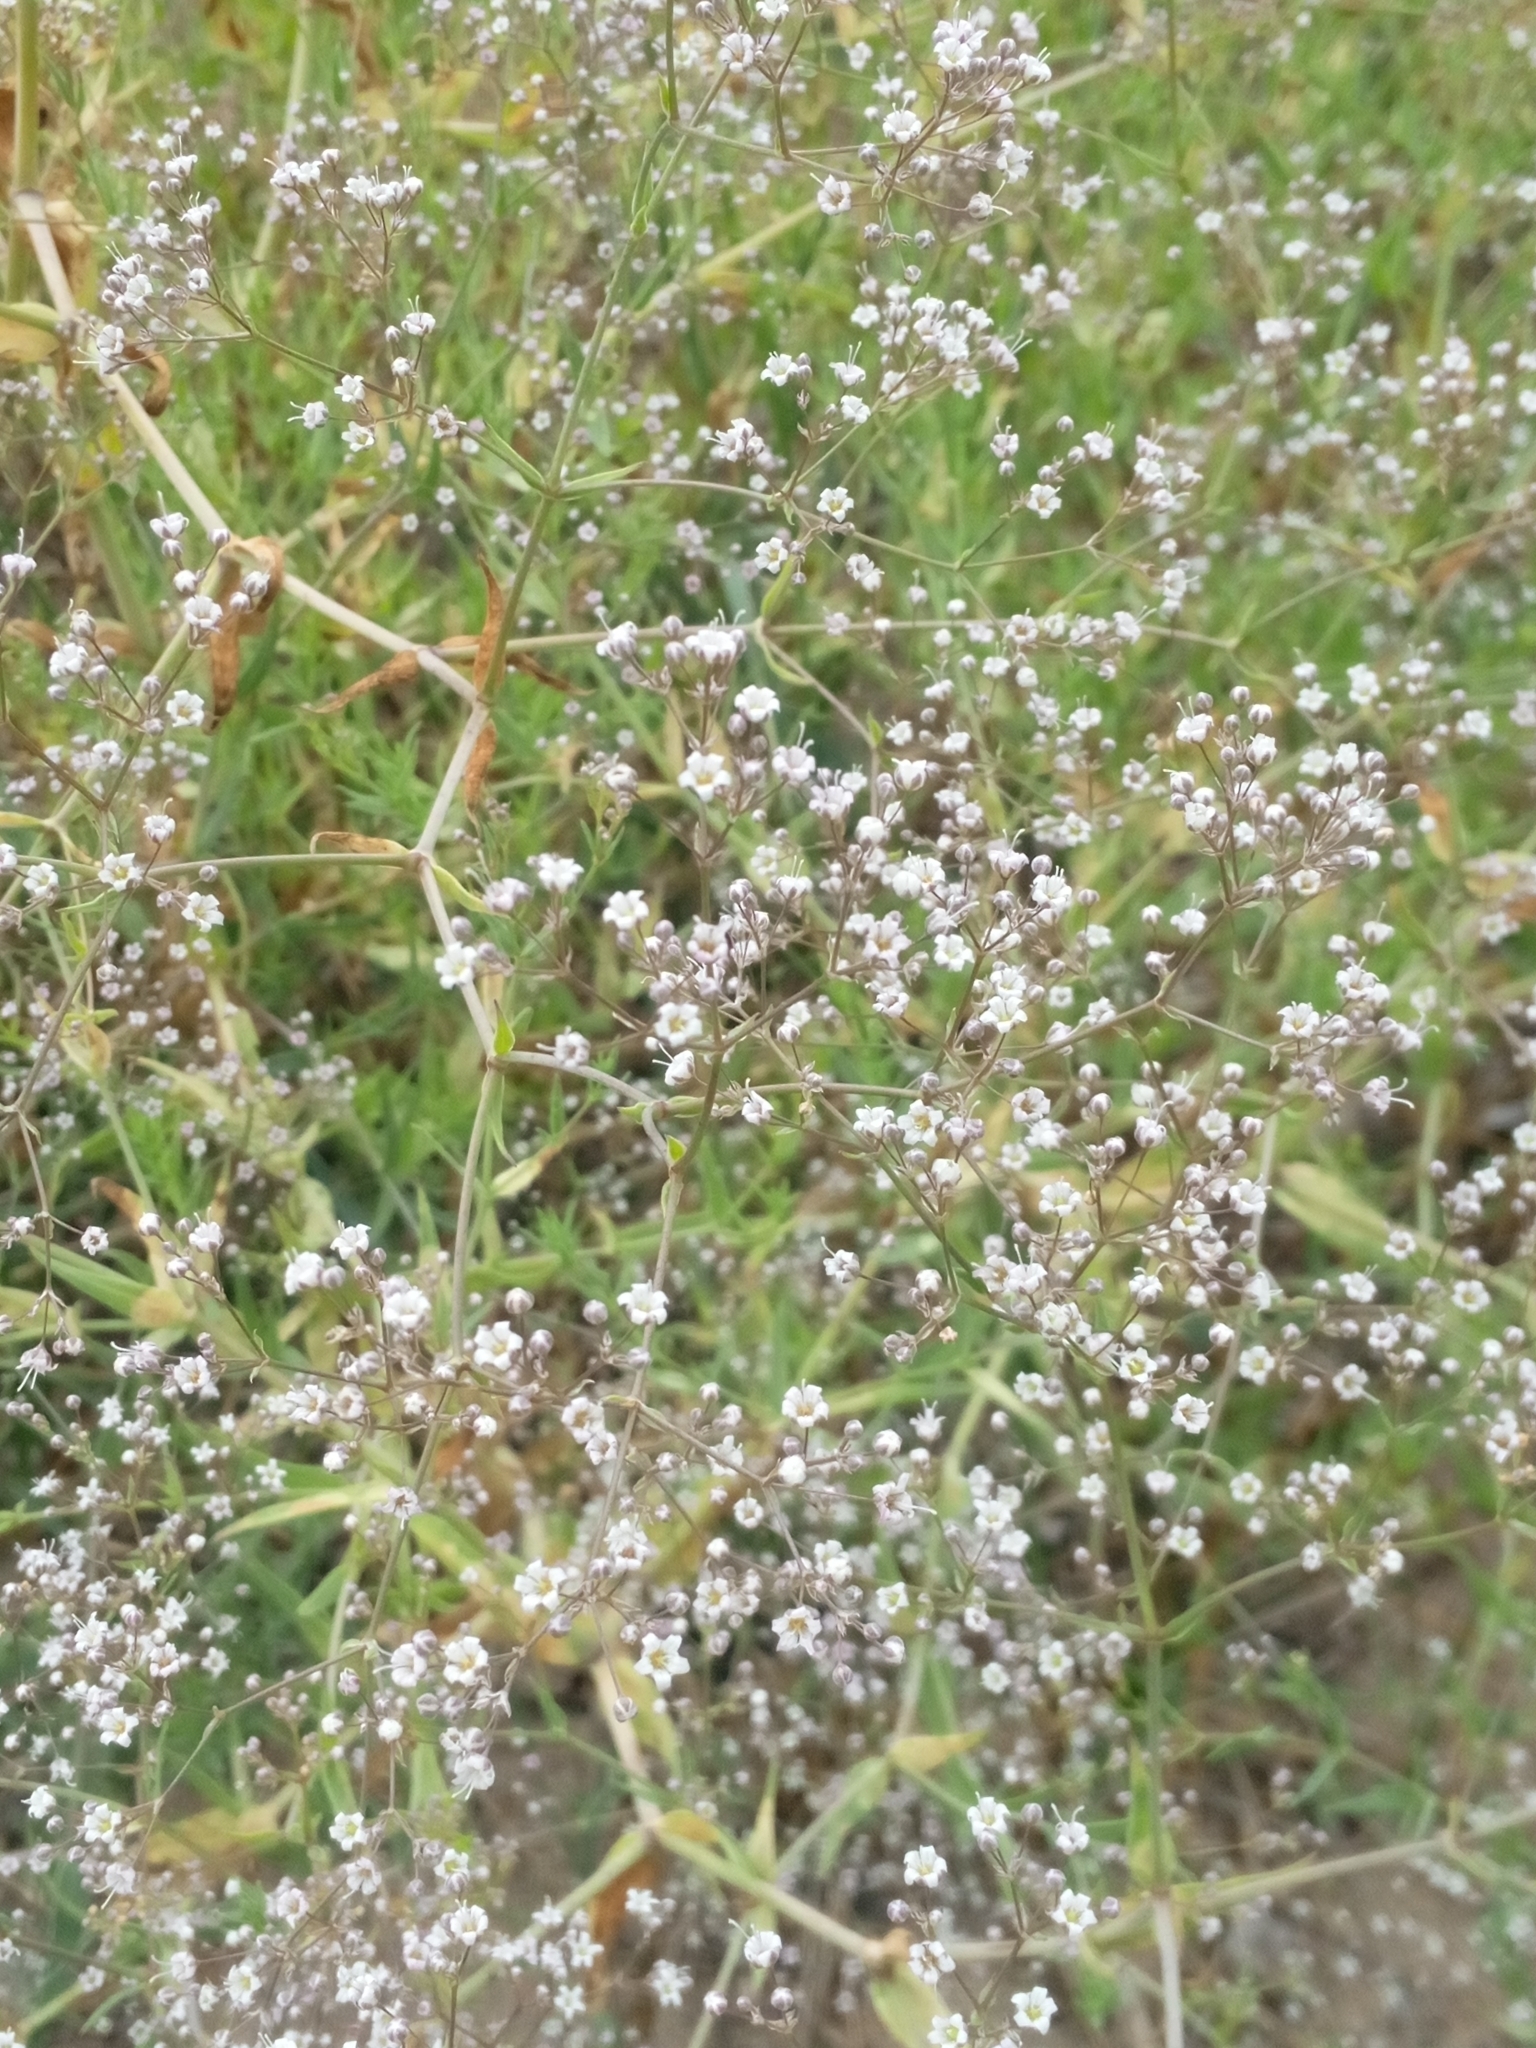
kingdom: Plantae
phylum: Tracheophyta
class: Magnoliopsida
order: Caryophyllales
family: Caryophyllaceae
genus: Gypsophila
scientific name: Gypsophila paniculata
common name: Baby's-breath
